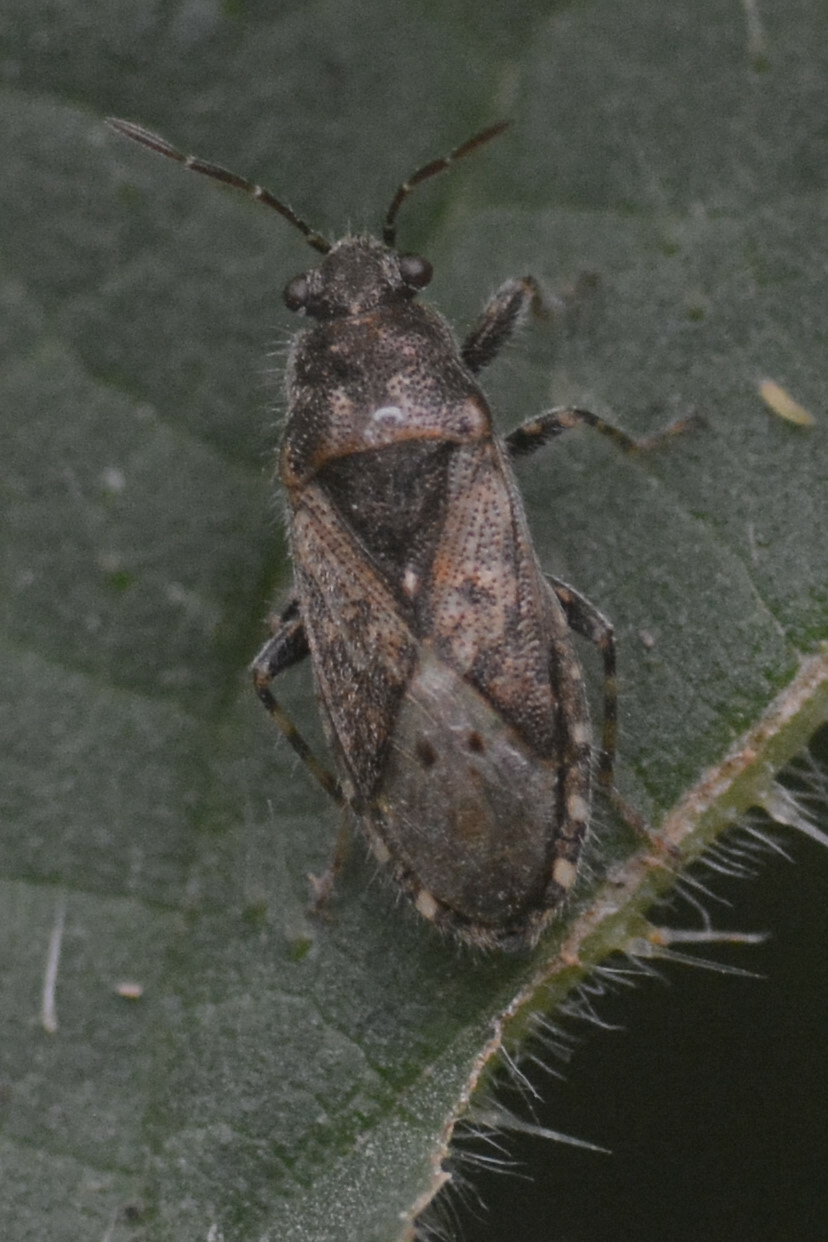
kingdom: Animalia
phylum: Arthropoda
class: Insecta
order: Hemiptera
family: Heterogastridae
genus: Heterogaster
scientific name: Heterogaster urticae
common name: Seed bug
